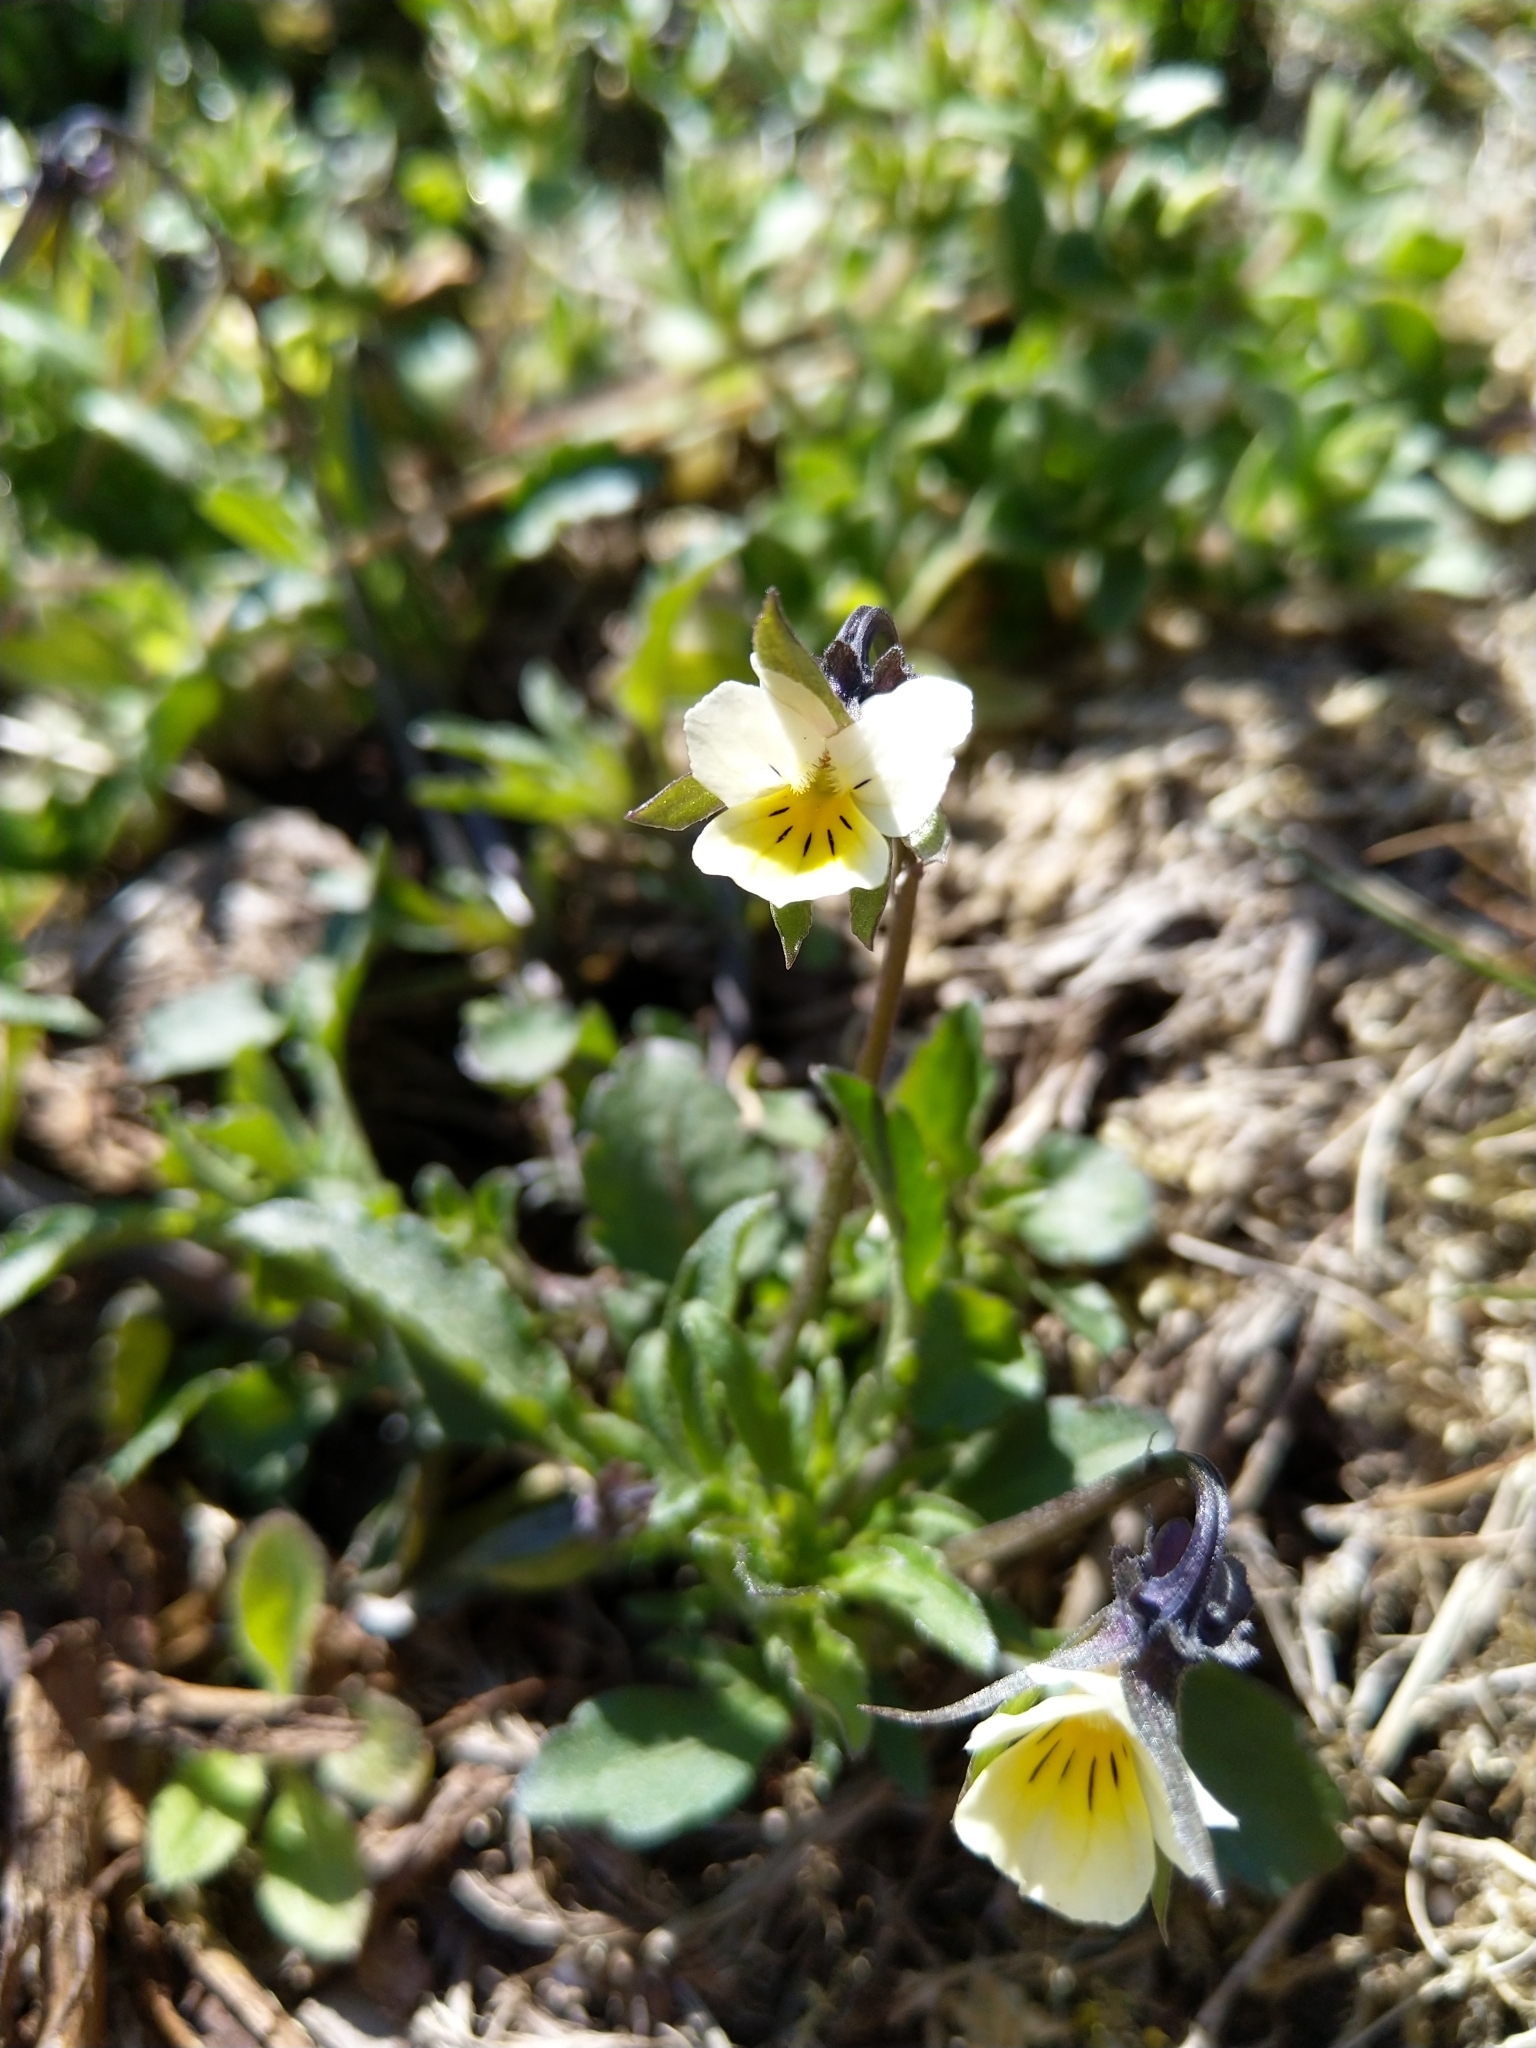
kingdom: Plantae
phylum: Tracheophyta
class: Magnoliopsida
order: Malpighiales
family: Violaceae
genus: Viola
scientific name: Viola arvensis
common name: Field pansy
